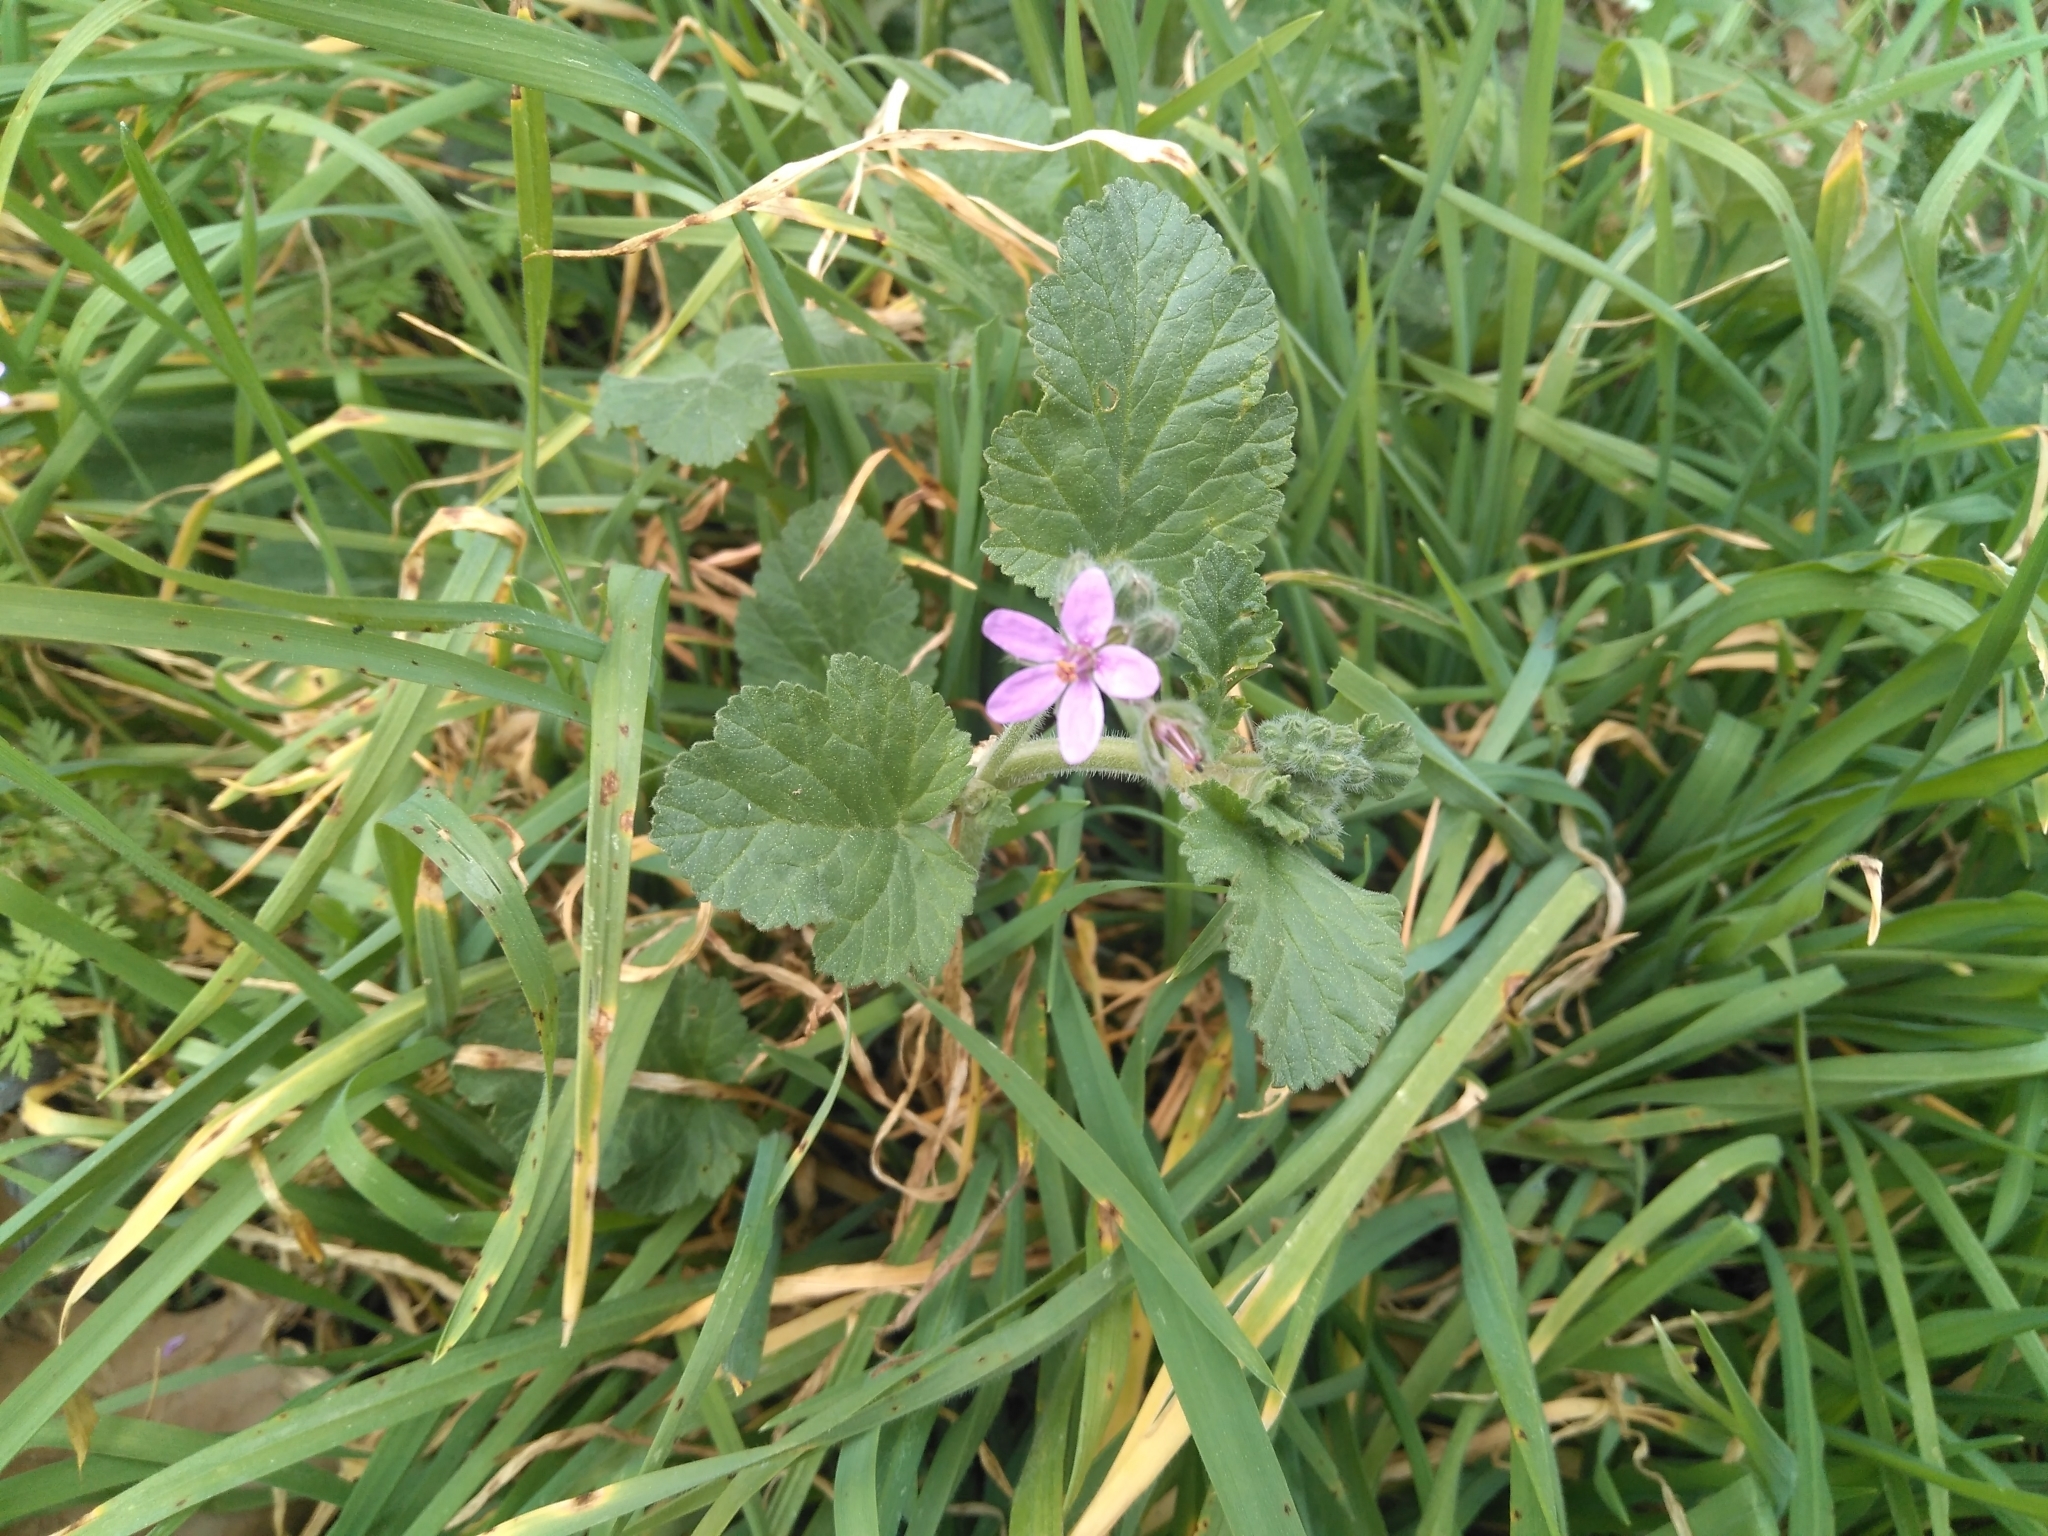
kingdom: Plantae
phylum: Tracheophyta
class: Magnoliopsida
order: Geraniales
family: Geraniaceae
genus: Erodium
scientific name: Erodium malacoides
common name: Soft stork's-bill
